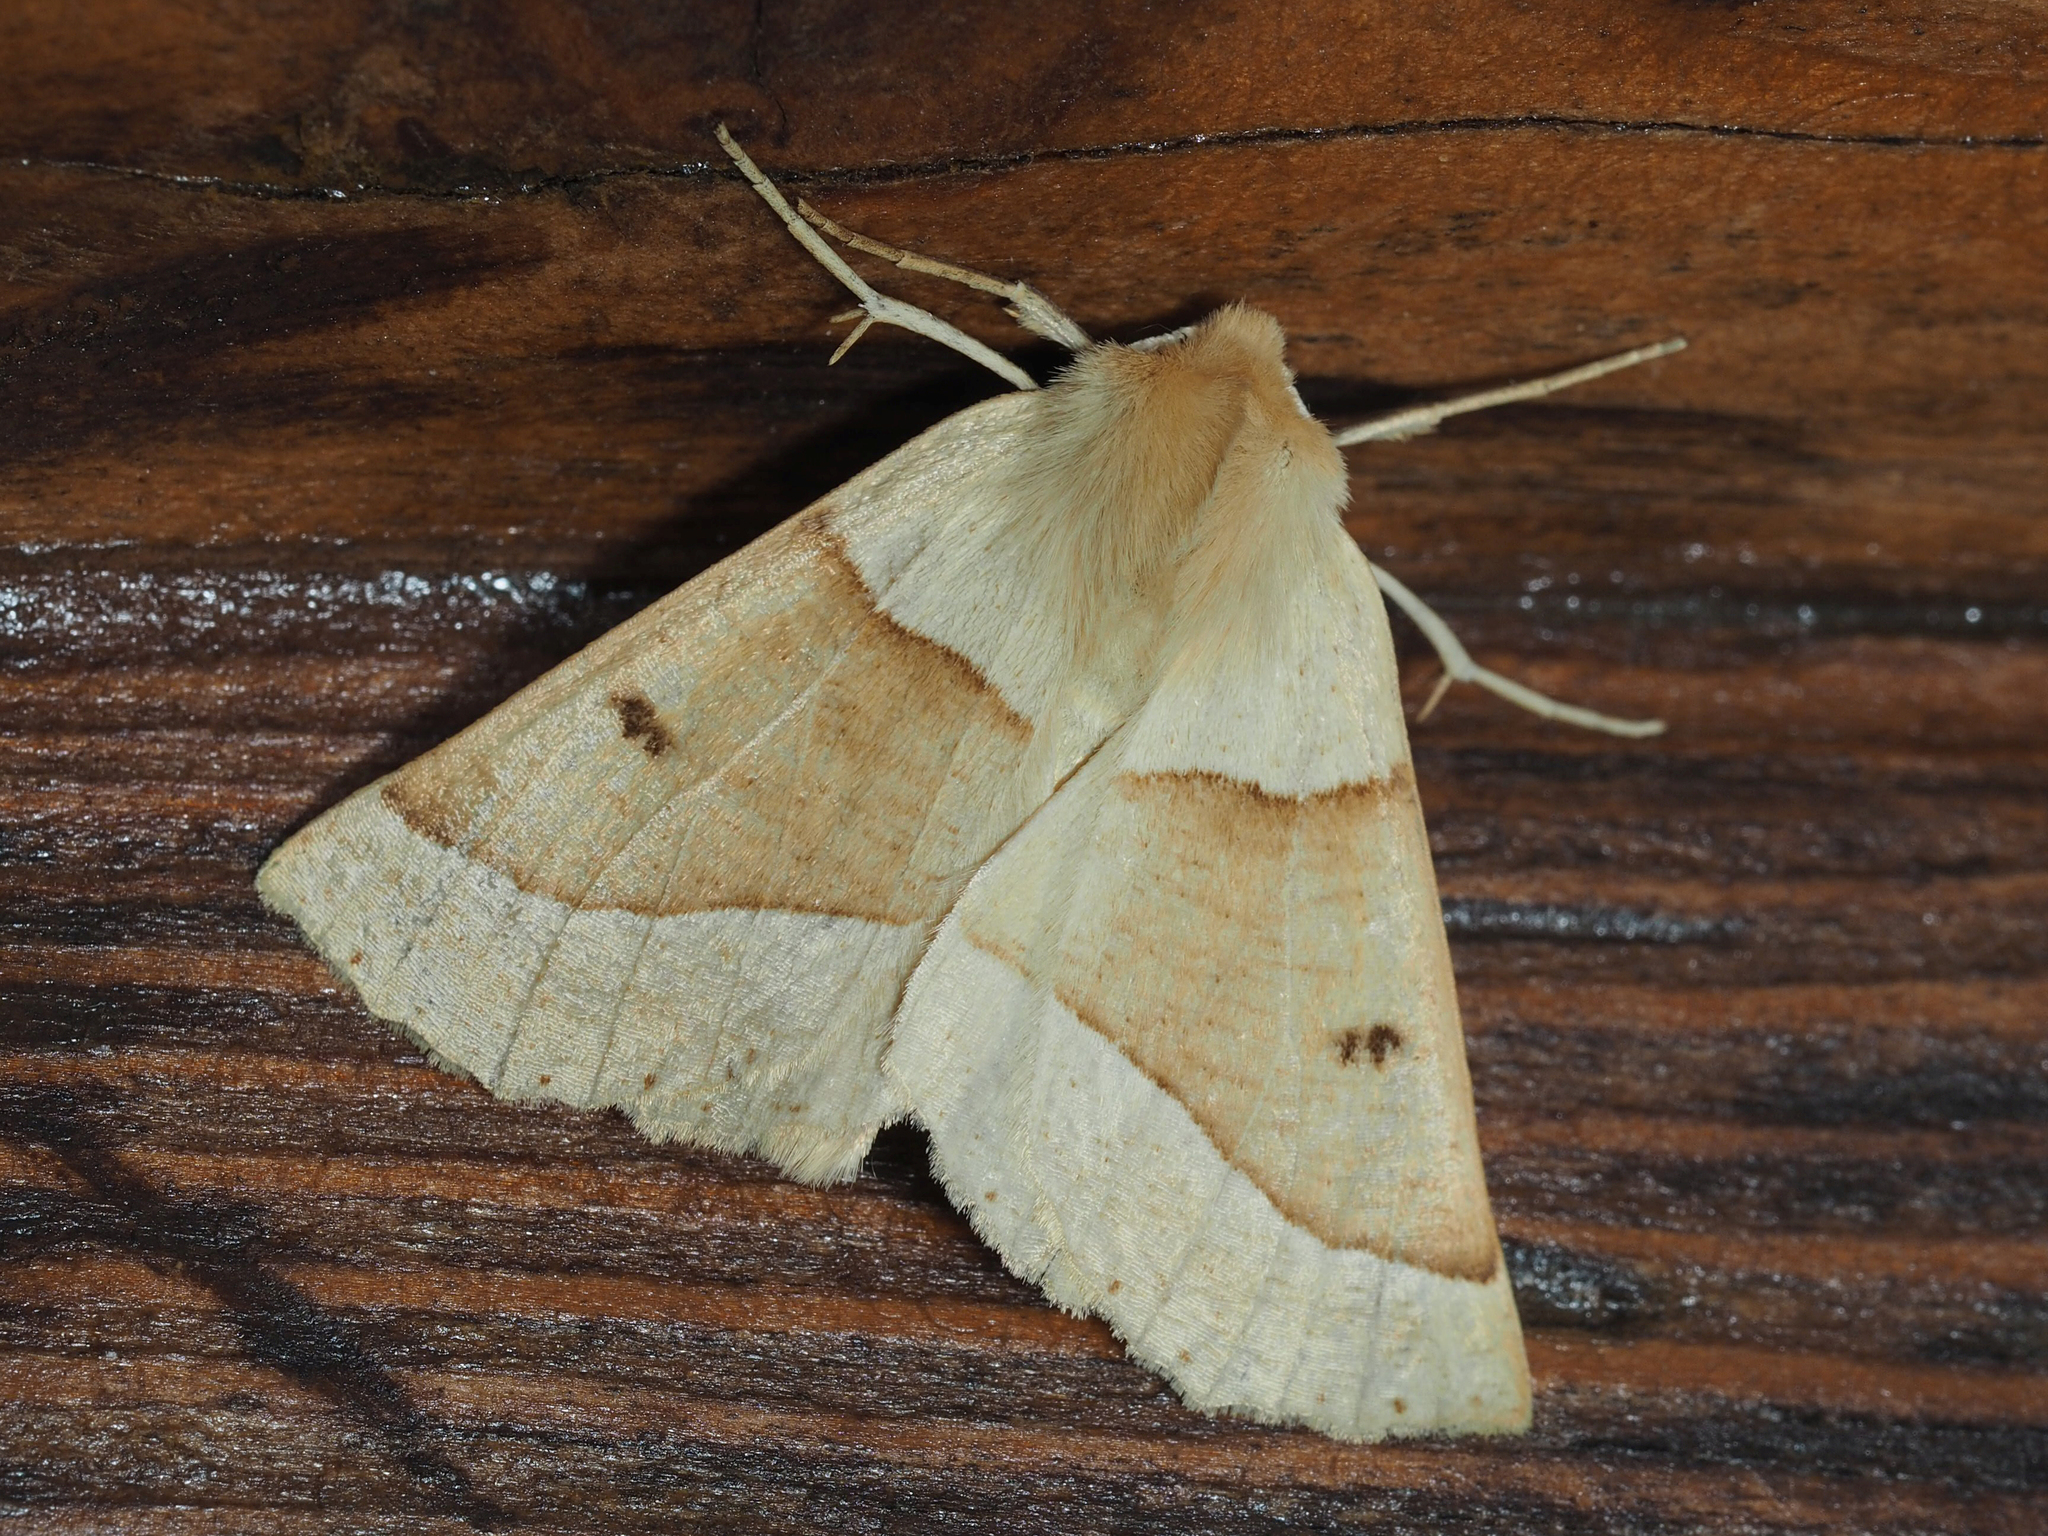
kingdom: Animalia
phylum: Arthropoda
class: Insecta
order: Lepidoptera
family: Geometridae
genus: Crocallis
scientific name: Crocallis elinguaria
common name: Scalloped oak
